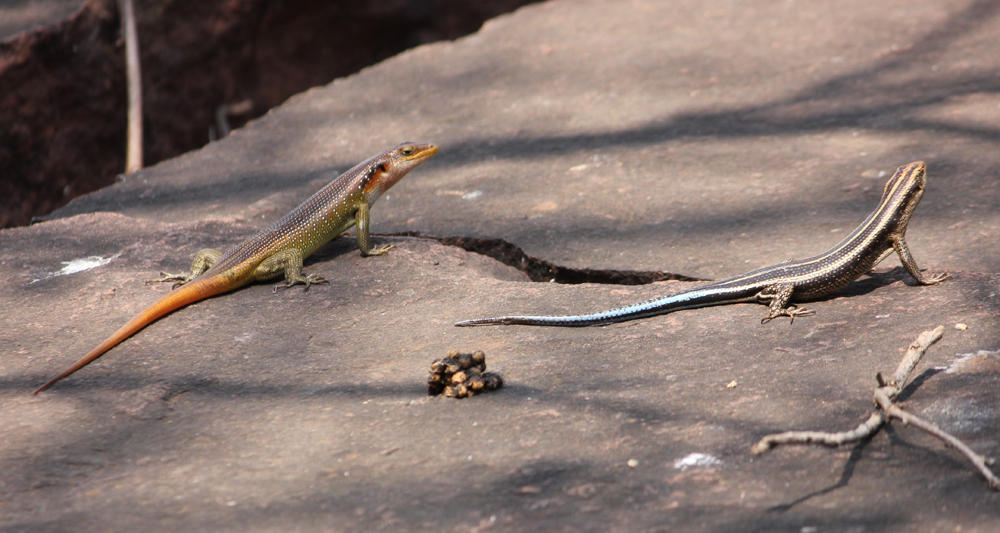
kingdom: Animalia
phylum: Chordata
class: Squamata
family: Scincidae
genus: Trachylepis
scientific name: Trachylepis margaritifera
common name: Rainbow skink
